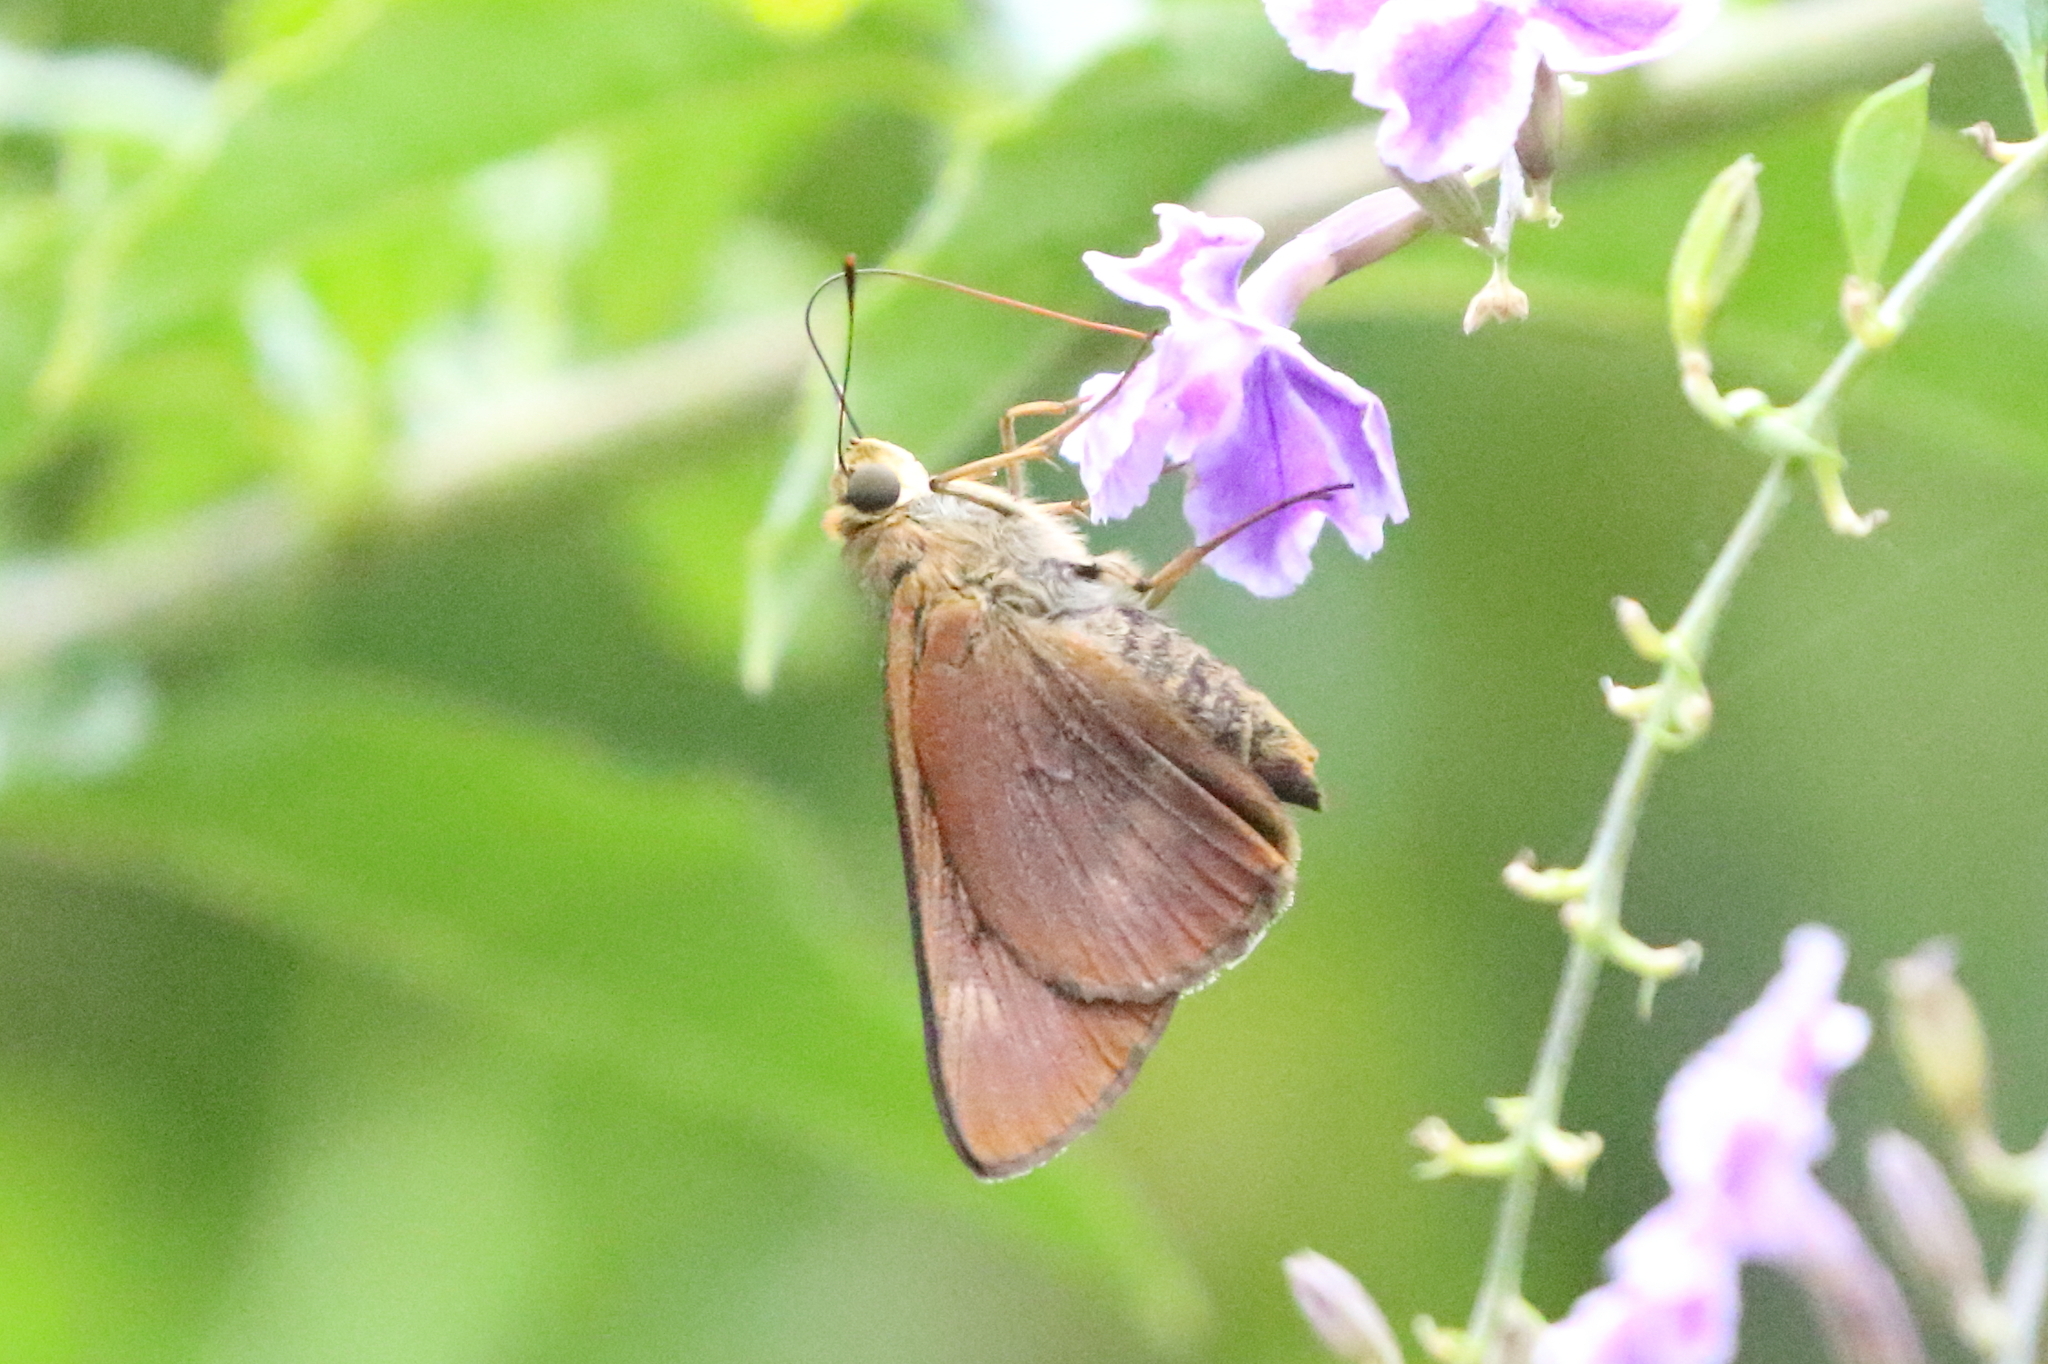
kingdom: Animalia
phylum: Arthropoda
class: Insecta
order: Lepidoptera
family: Hesperiidae
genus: Cephrenes
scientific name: Cephrenes augiades
